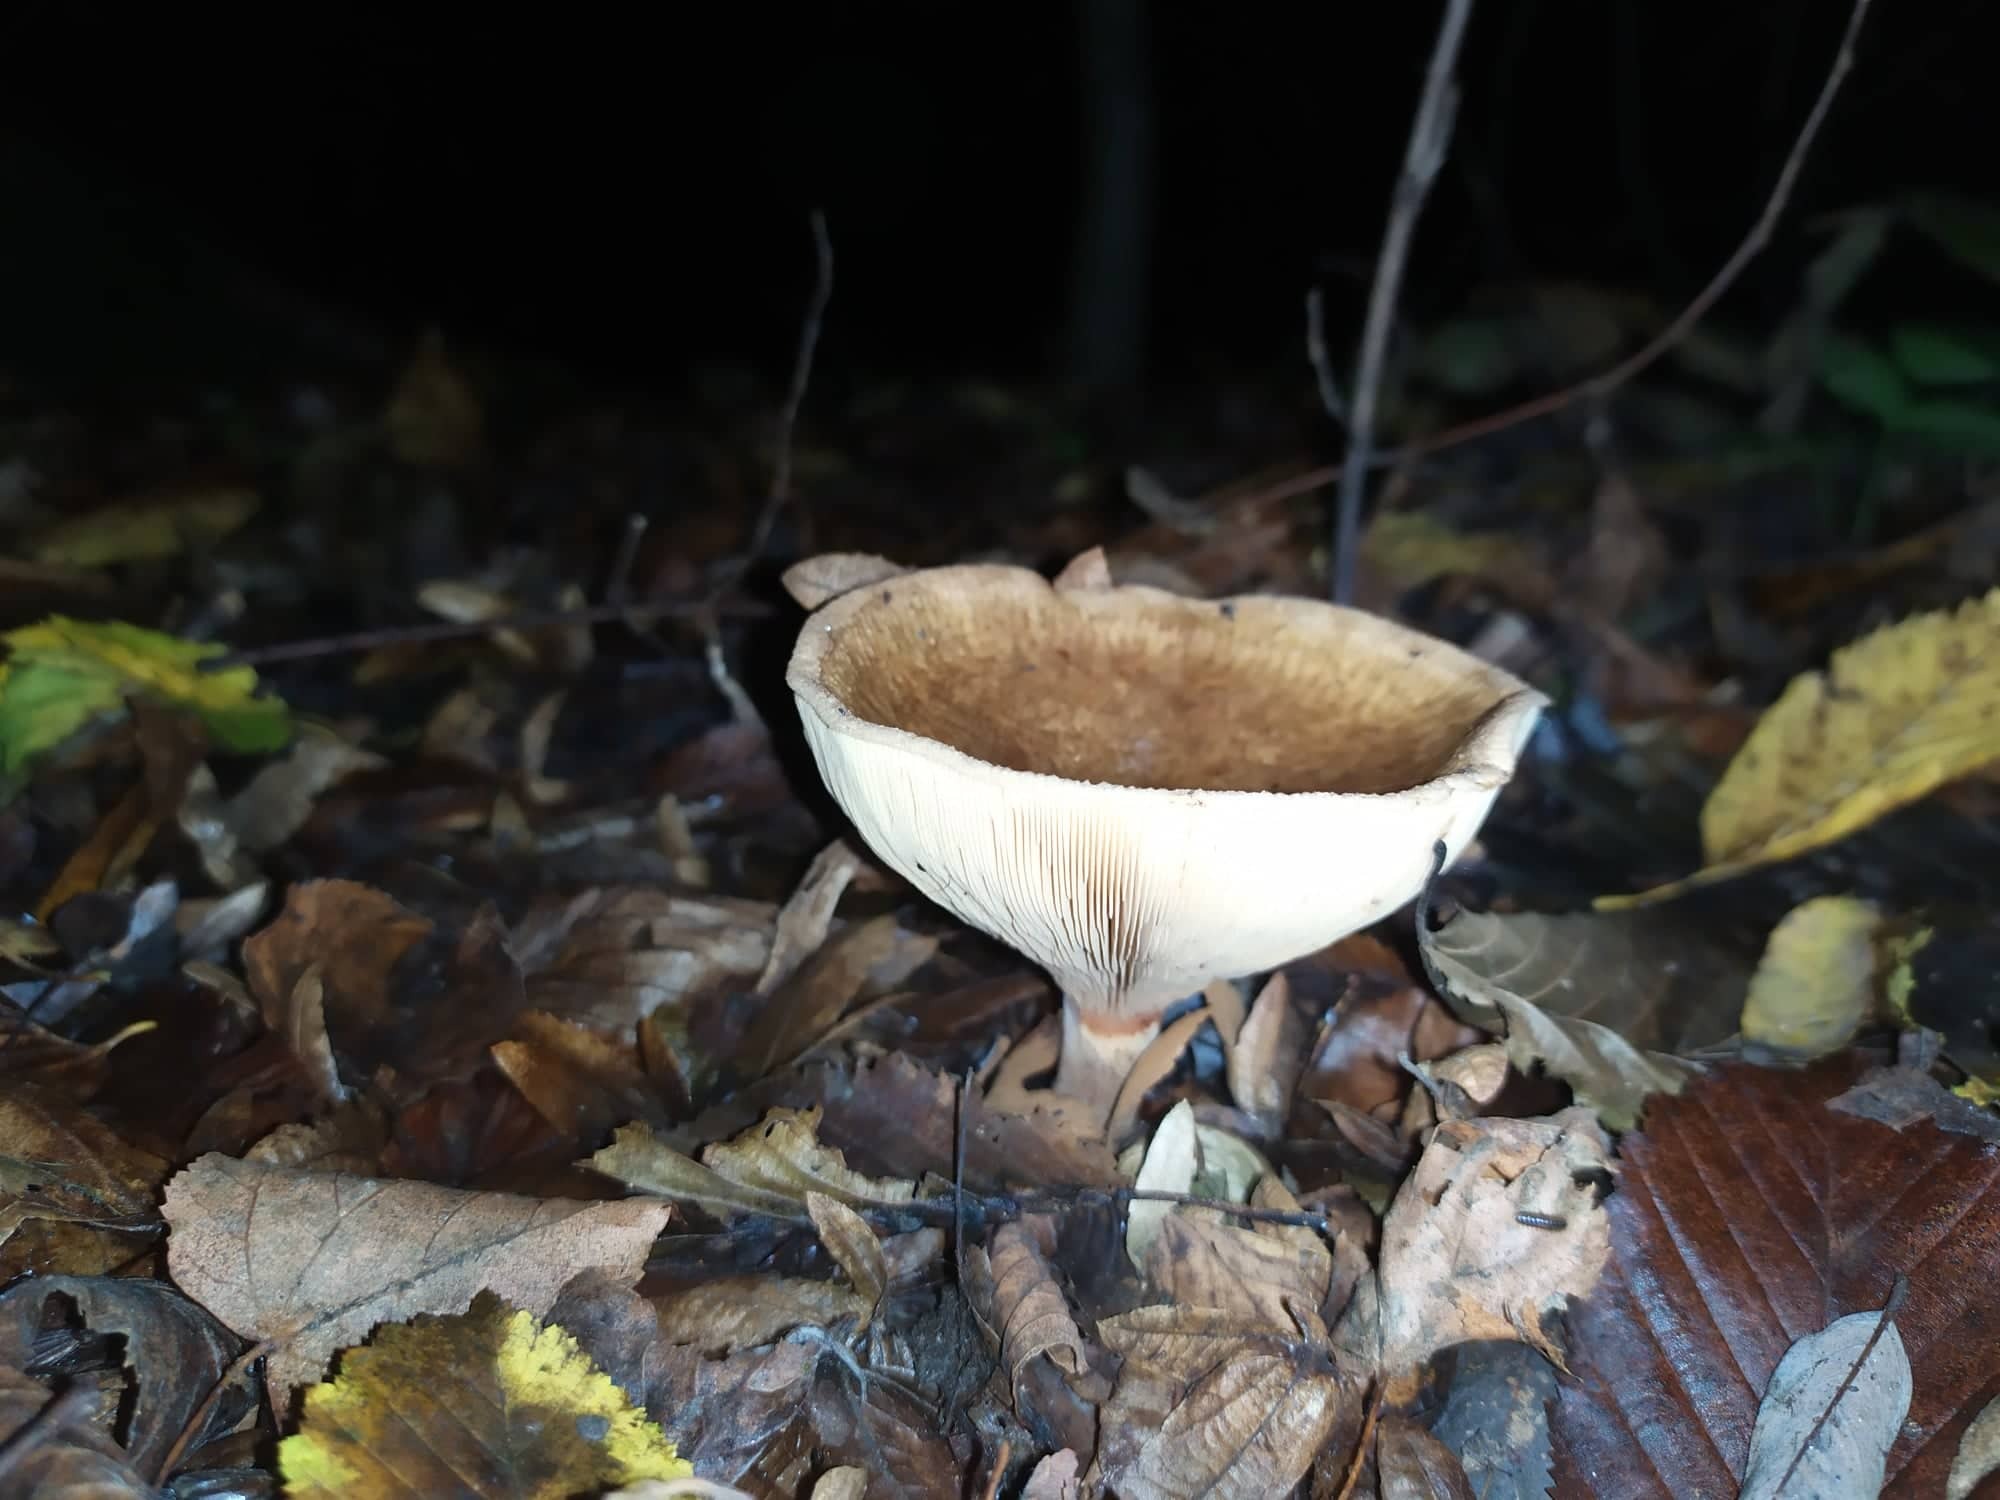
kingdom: Fungi
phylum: Basidiomycota
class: Agaricomycetes
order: Boletales
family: Paxillaceae
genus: Paxillus
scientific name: Paxillus involutus
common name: Brown roll rim
